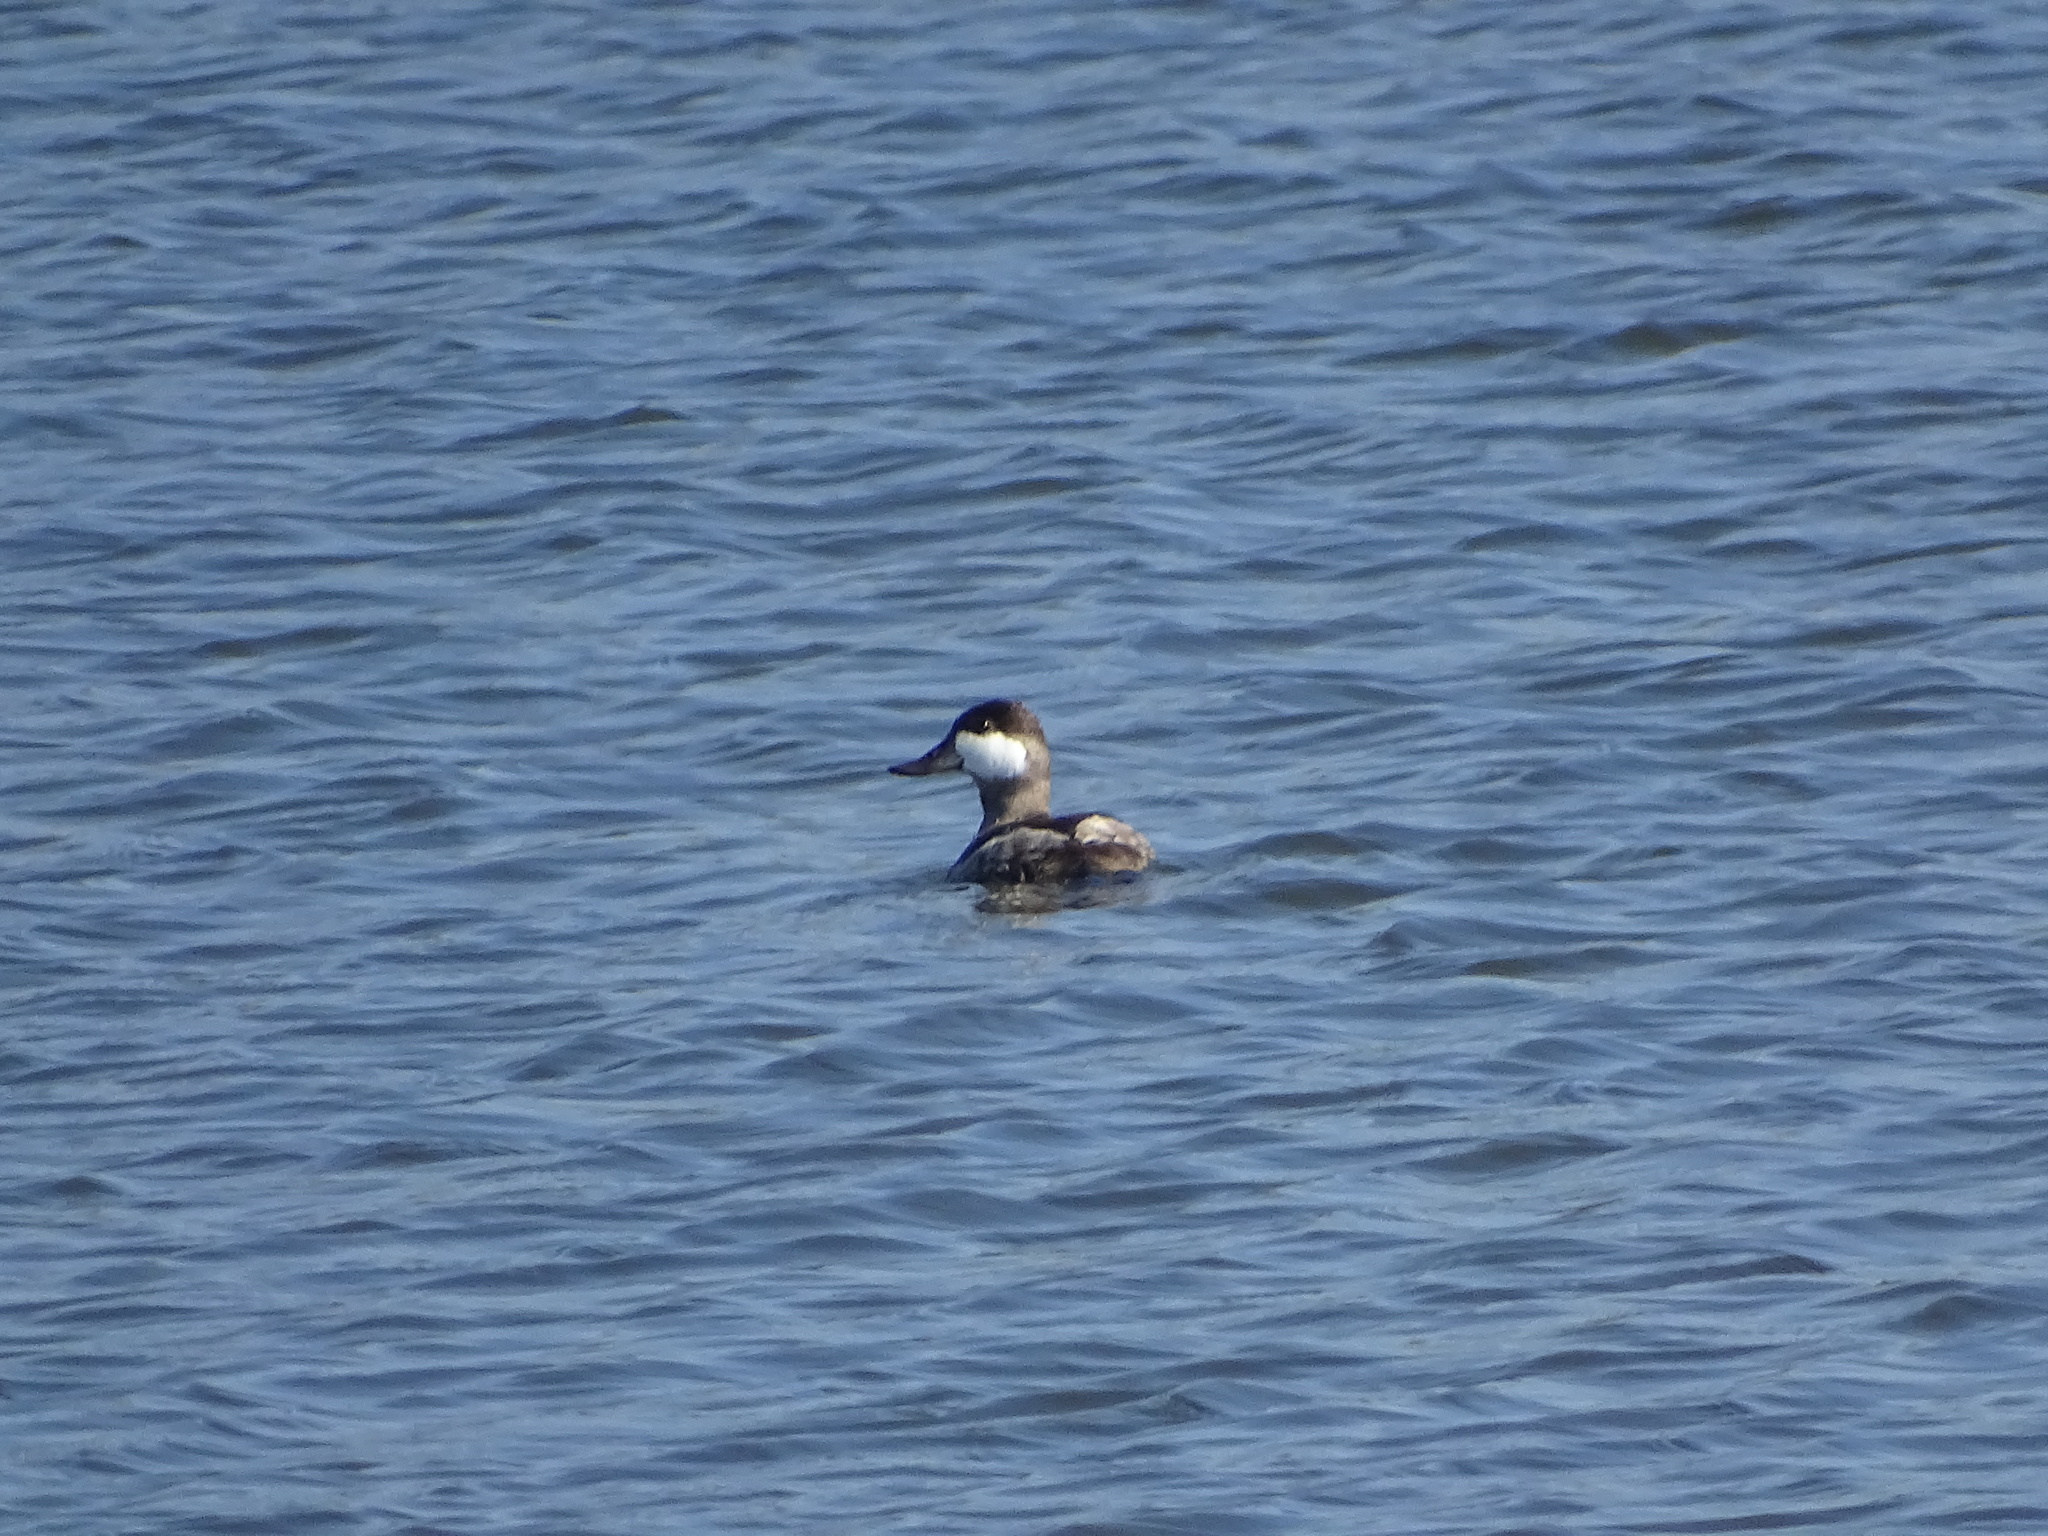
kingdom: Animalia
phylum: Chordata
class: Aves
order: Anseriformes
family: Anatidae
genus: Oxyura
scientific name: Oxyura jamaicensis
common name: Ruddy duck
